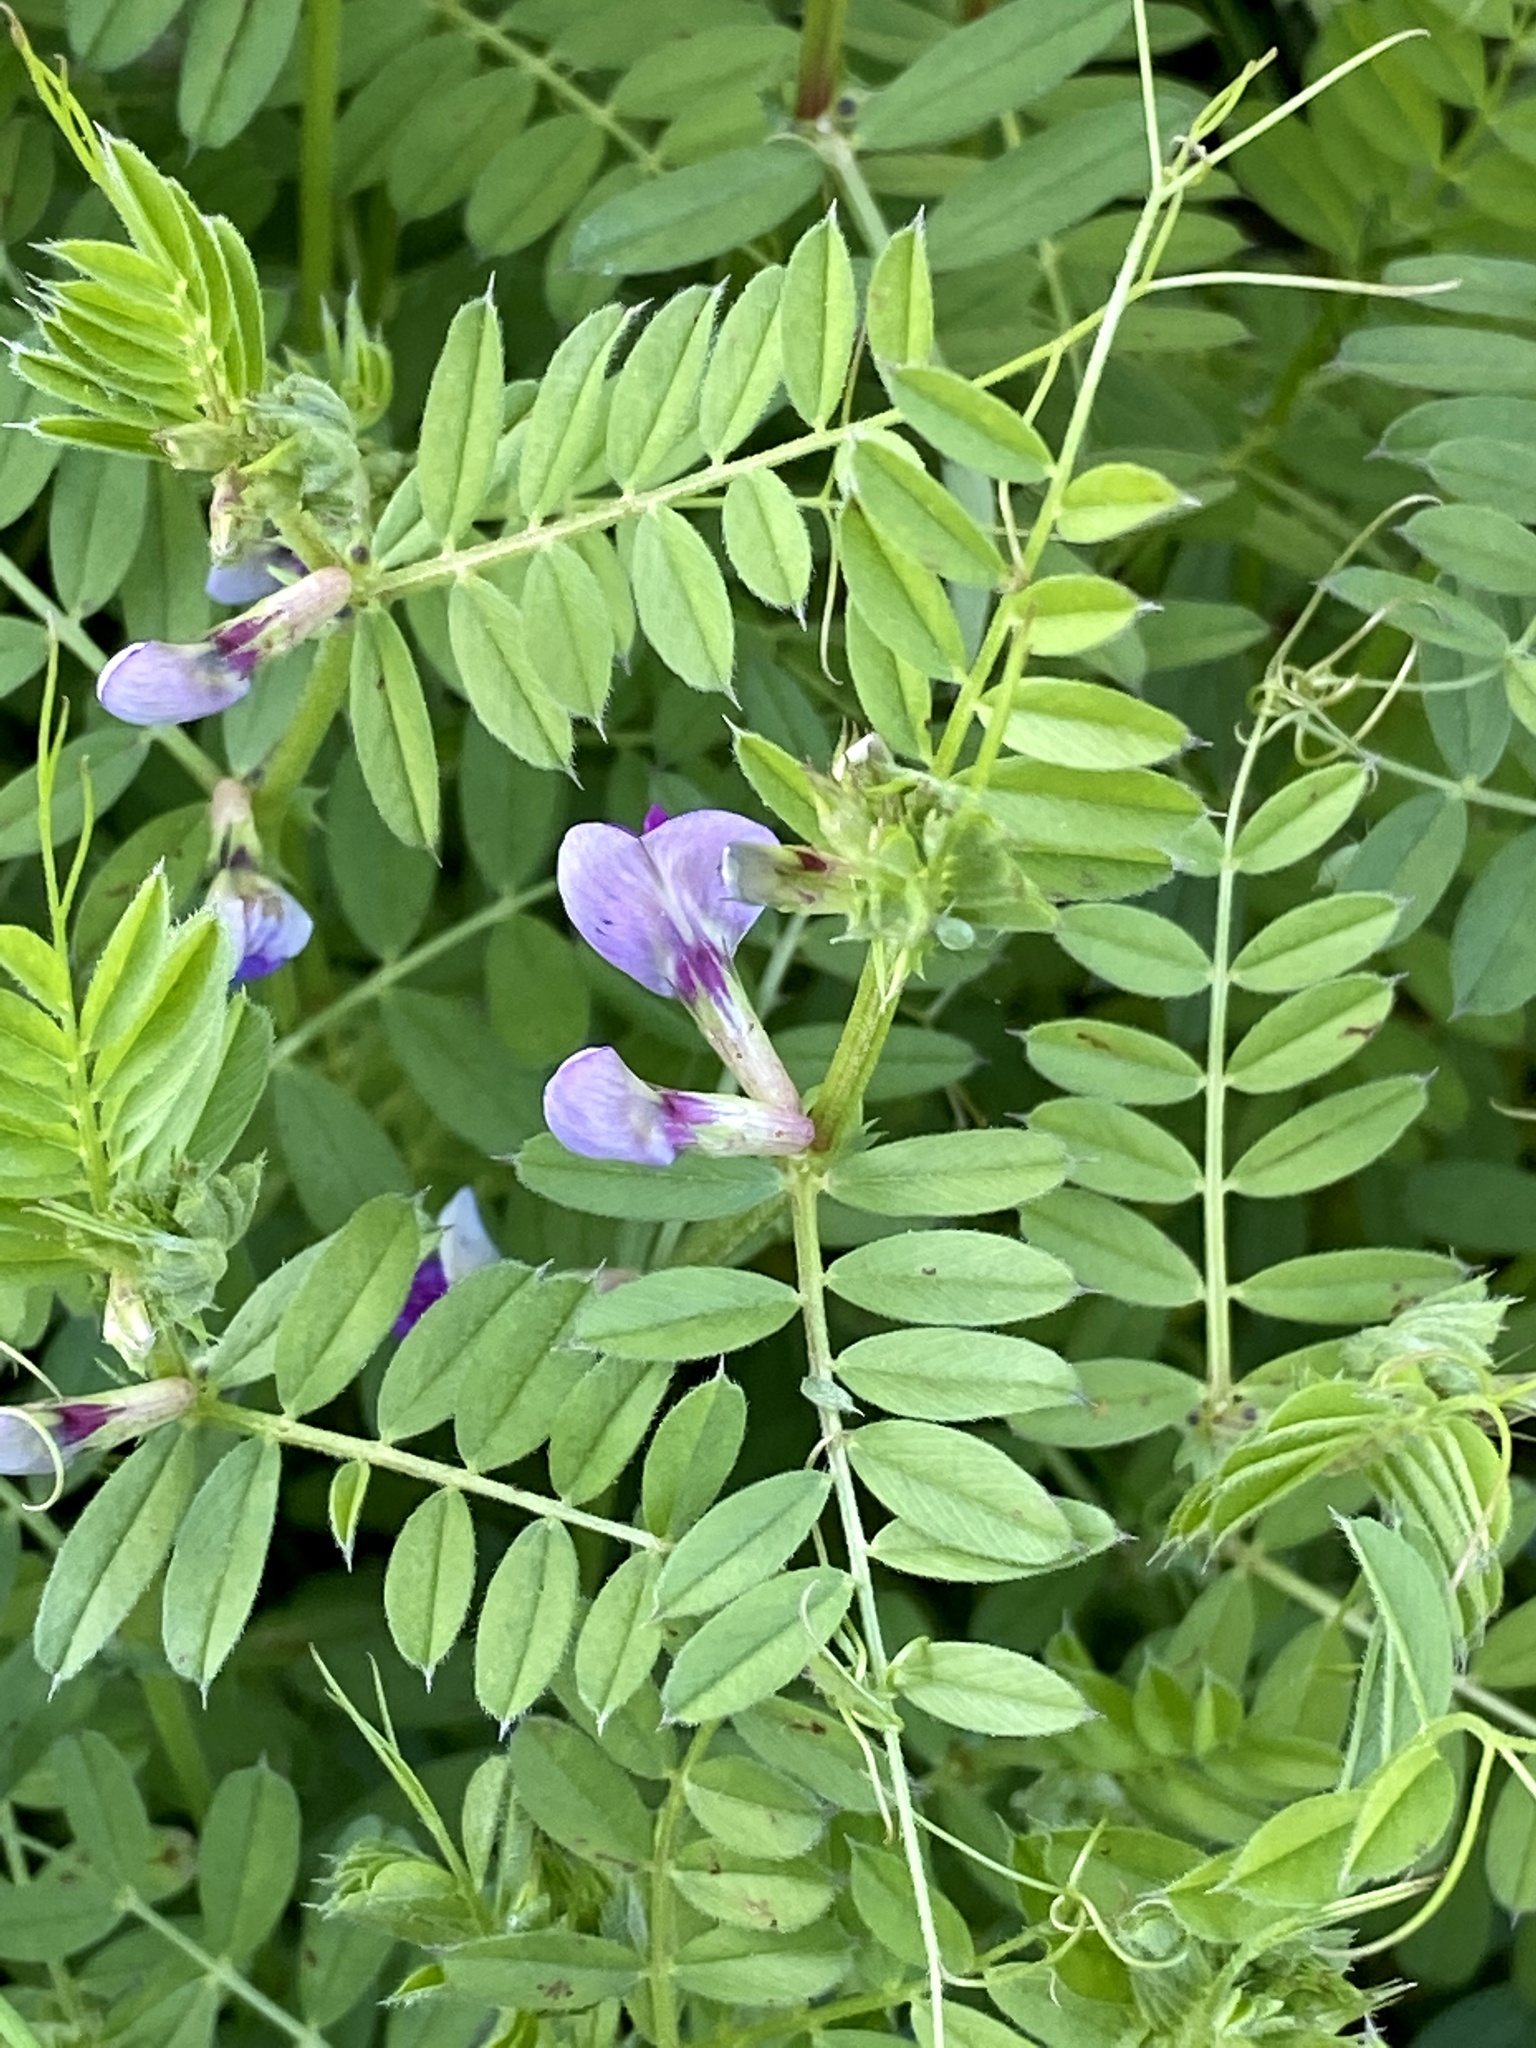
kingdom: Plantae
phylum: Tracheophyta
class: Magnoliopsida
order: Fabales
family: Fabaceae
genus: Vicia
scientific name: Vicia sativa
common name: Garden vetch
